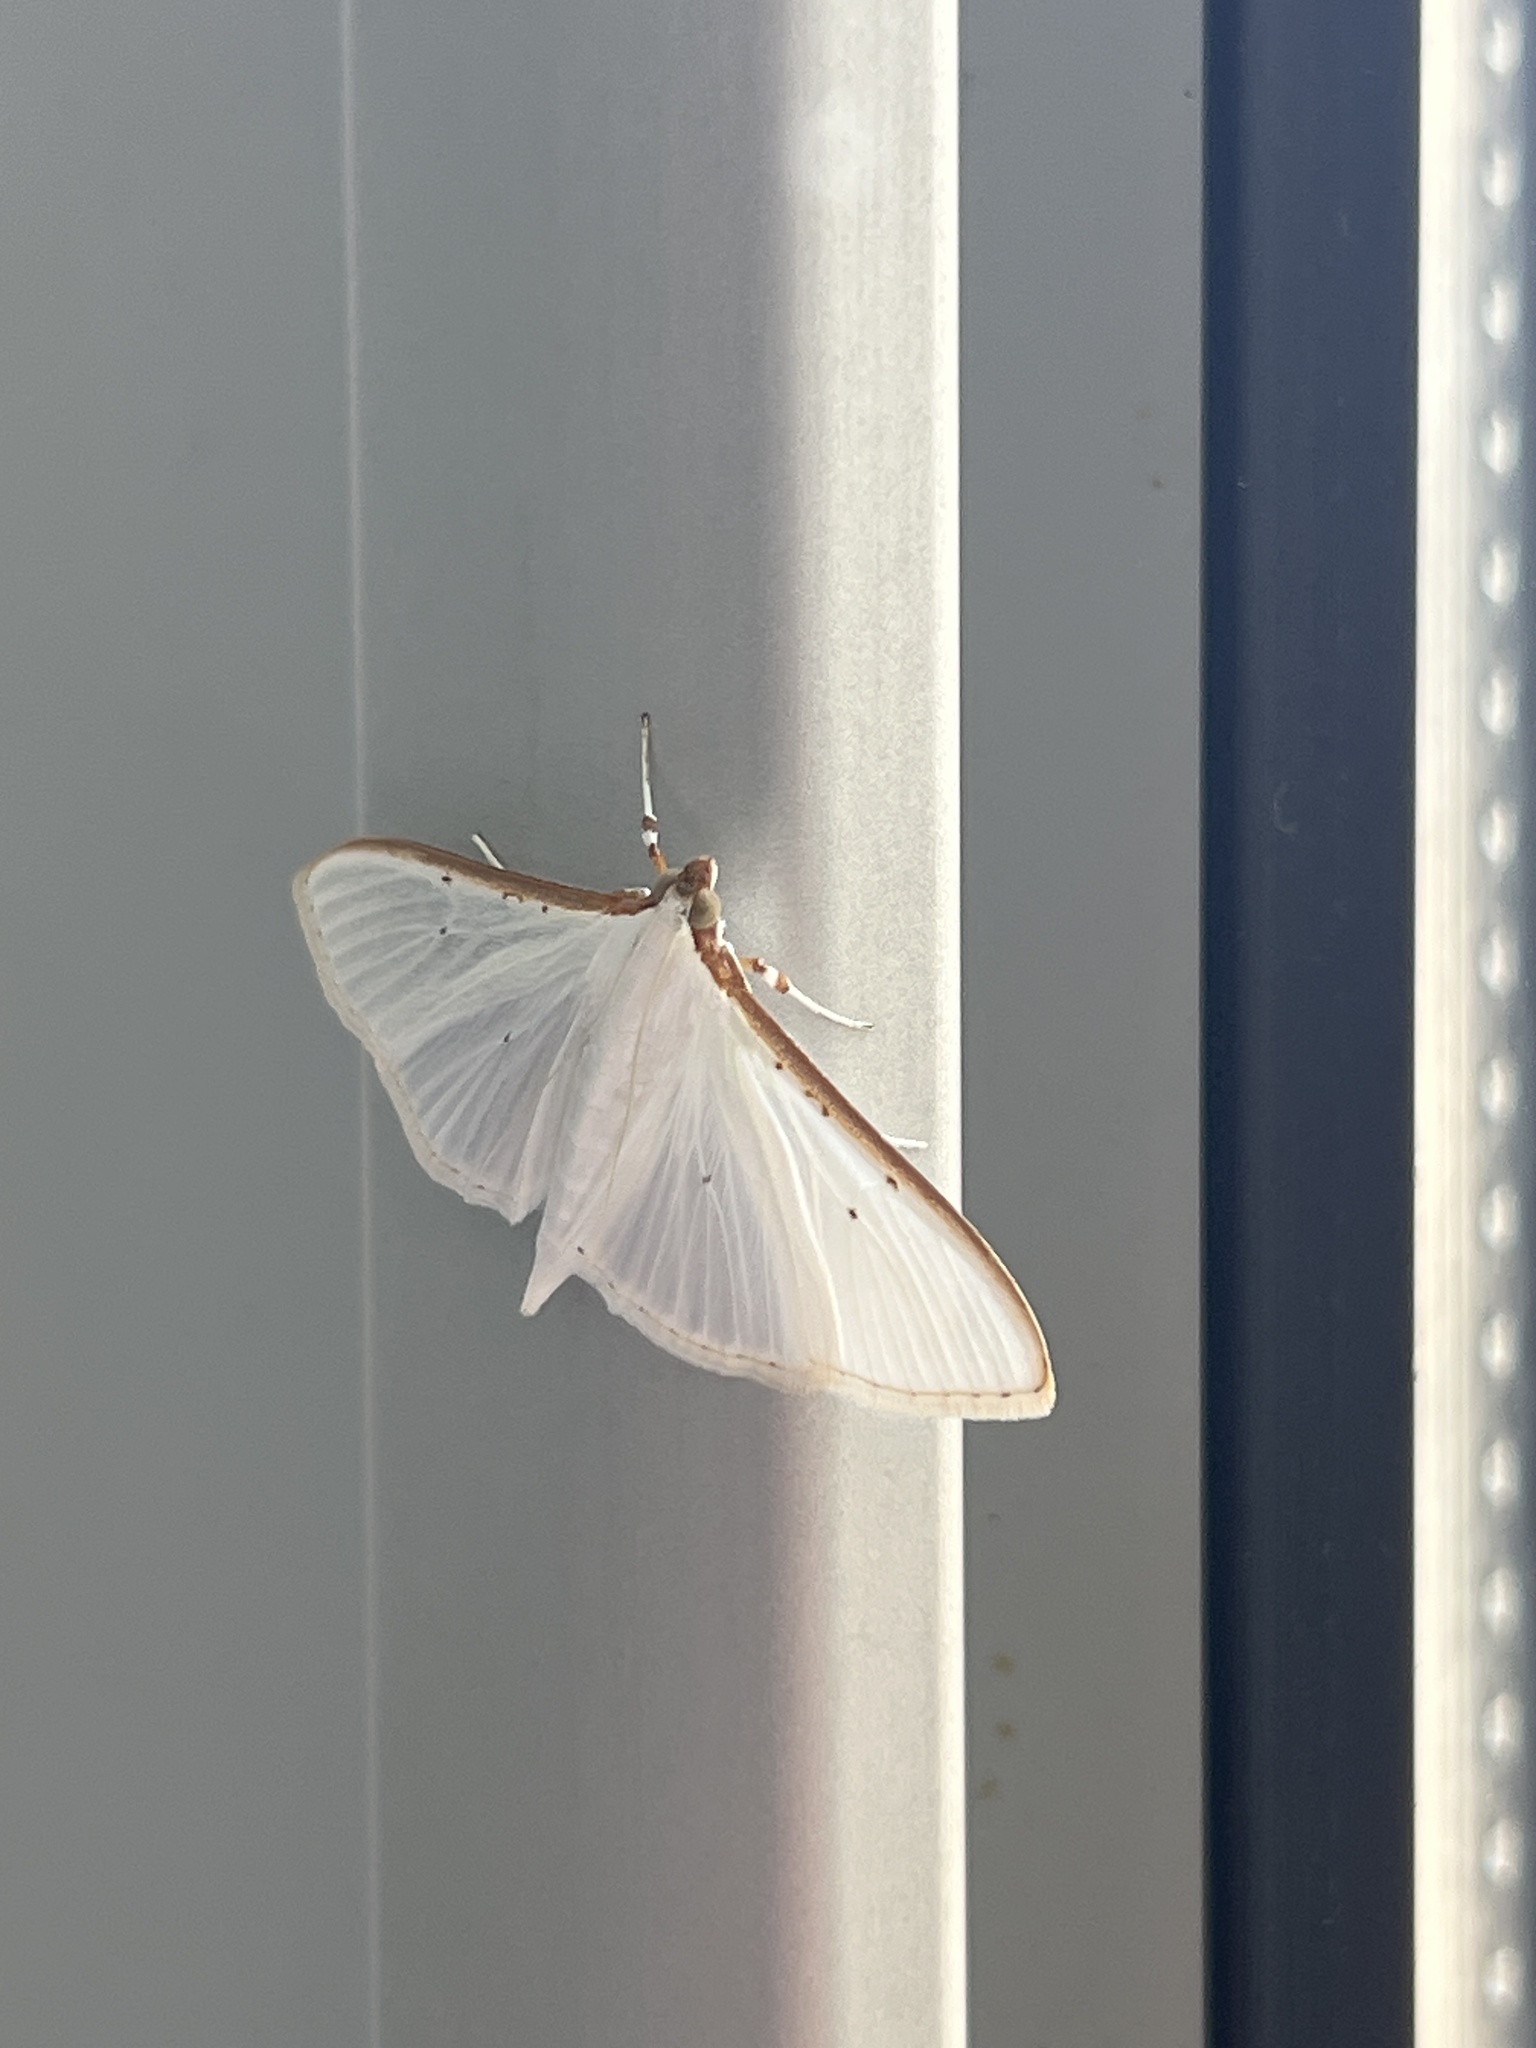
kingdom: Animalia
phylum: Arthropoda
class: Insecta
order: Lepidoptera
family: Crambidae
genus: Palpita
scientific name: Palpita vitrealis
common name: Olive-tree pearl
